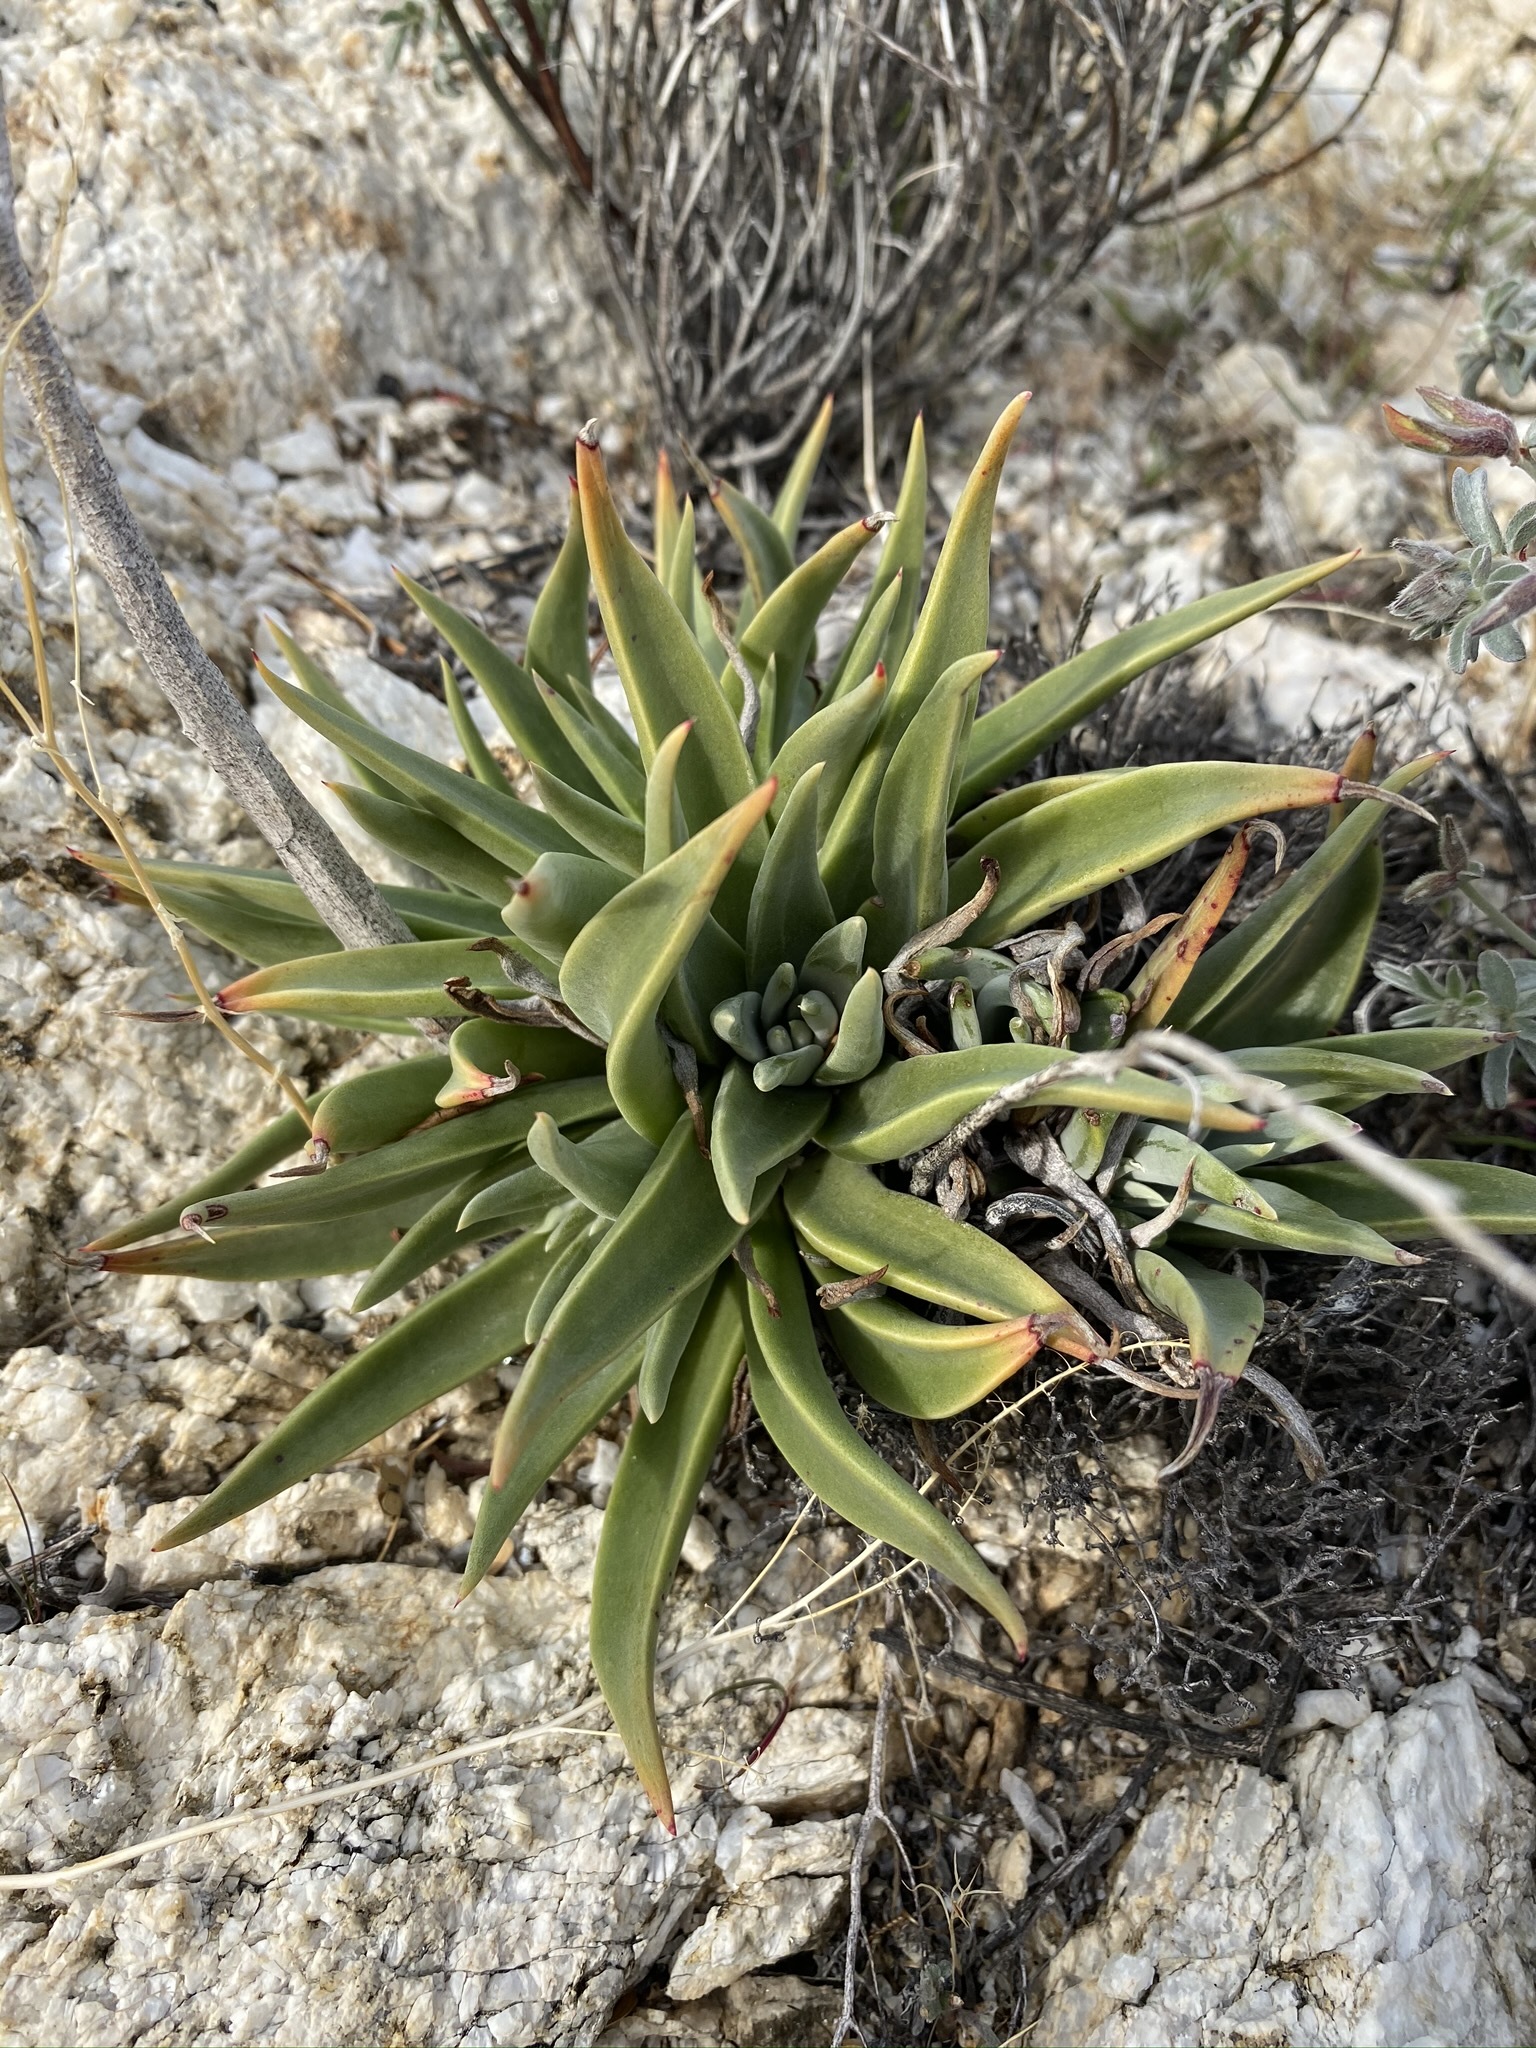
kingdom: Plantae
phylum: Tracheophyta
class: Magnoliopsida
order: Saxifragales
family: Crassulaceae
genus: Dudleya
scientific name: Dudleya saxosa
